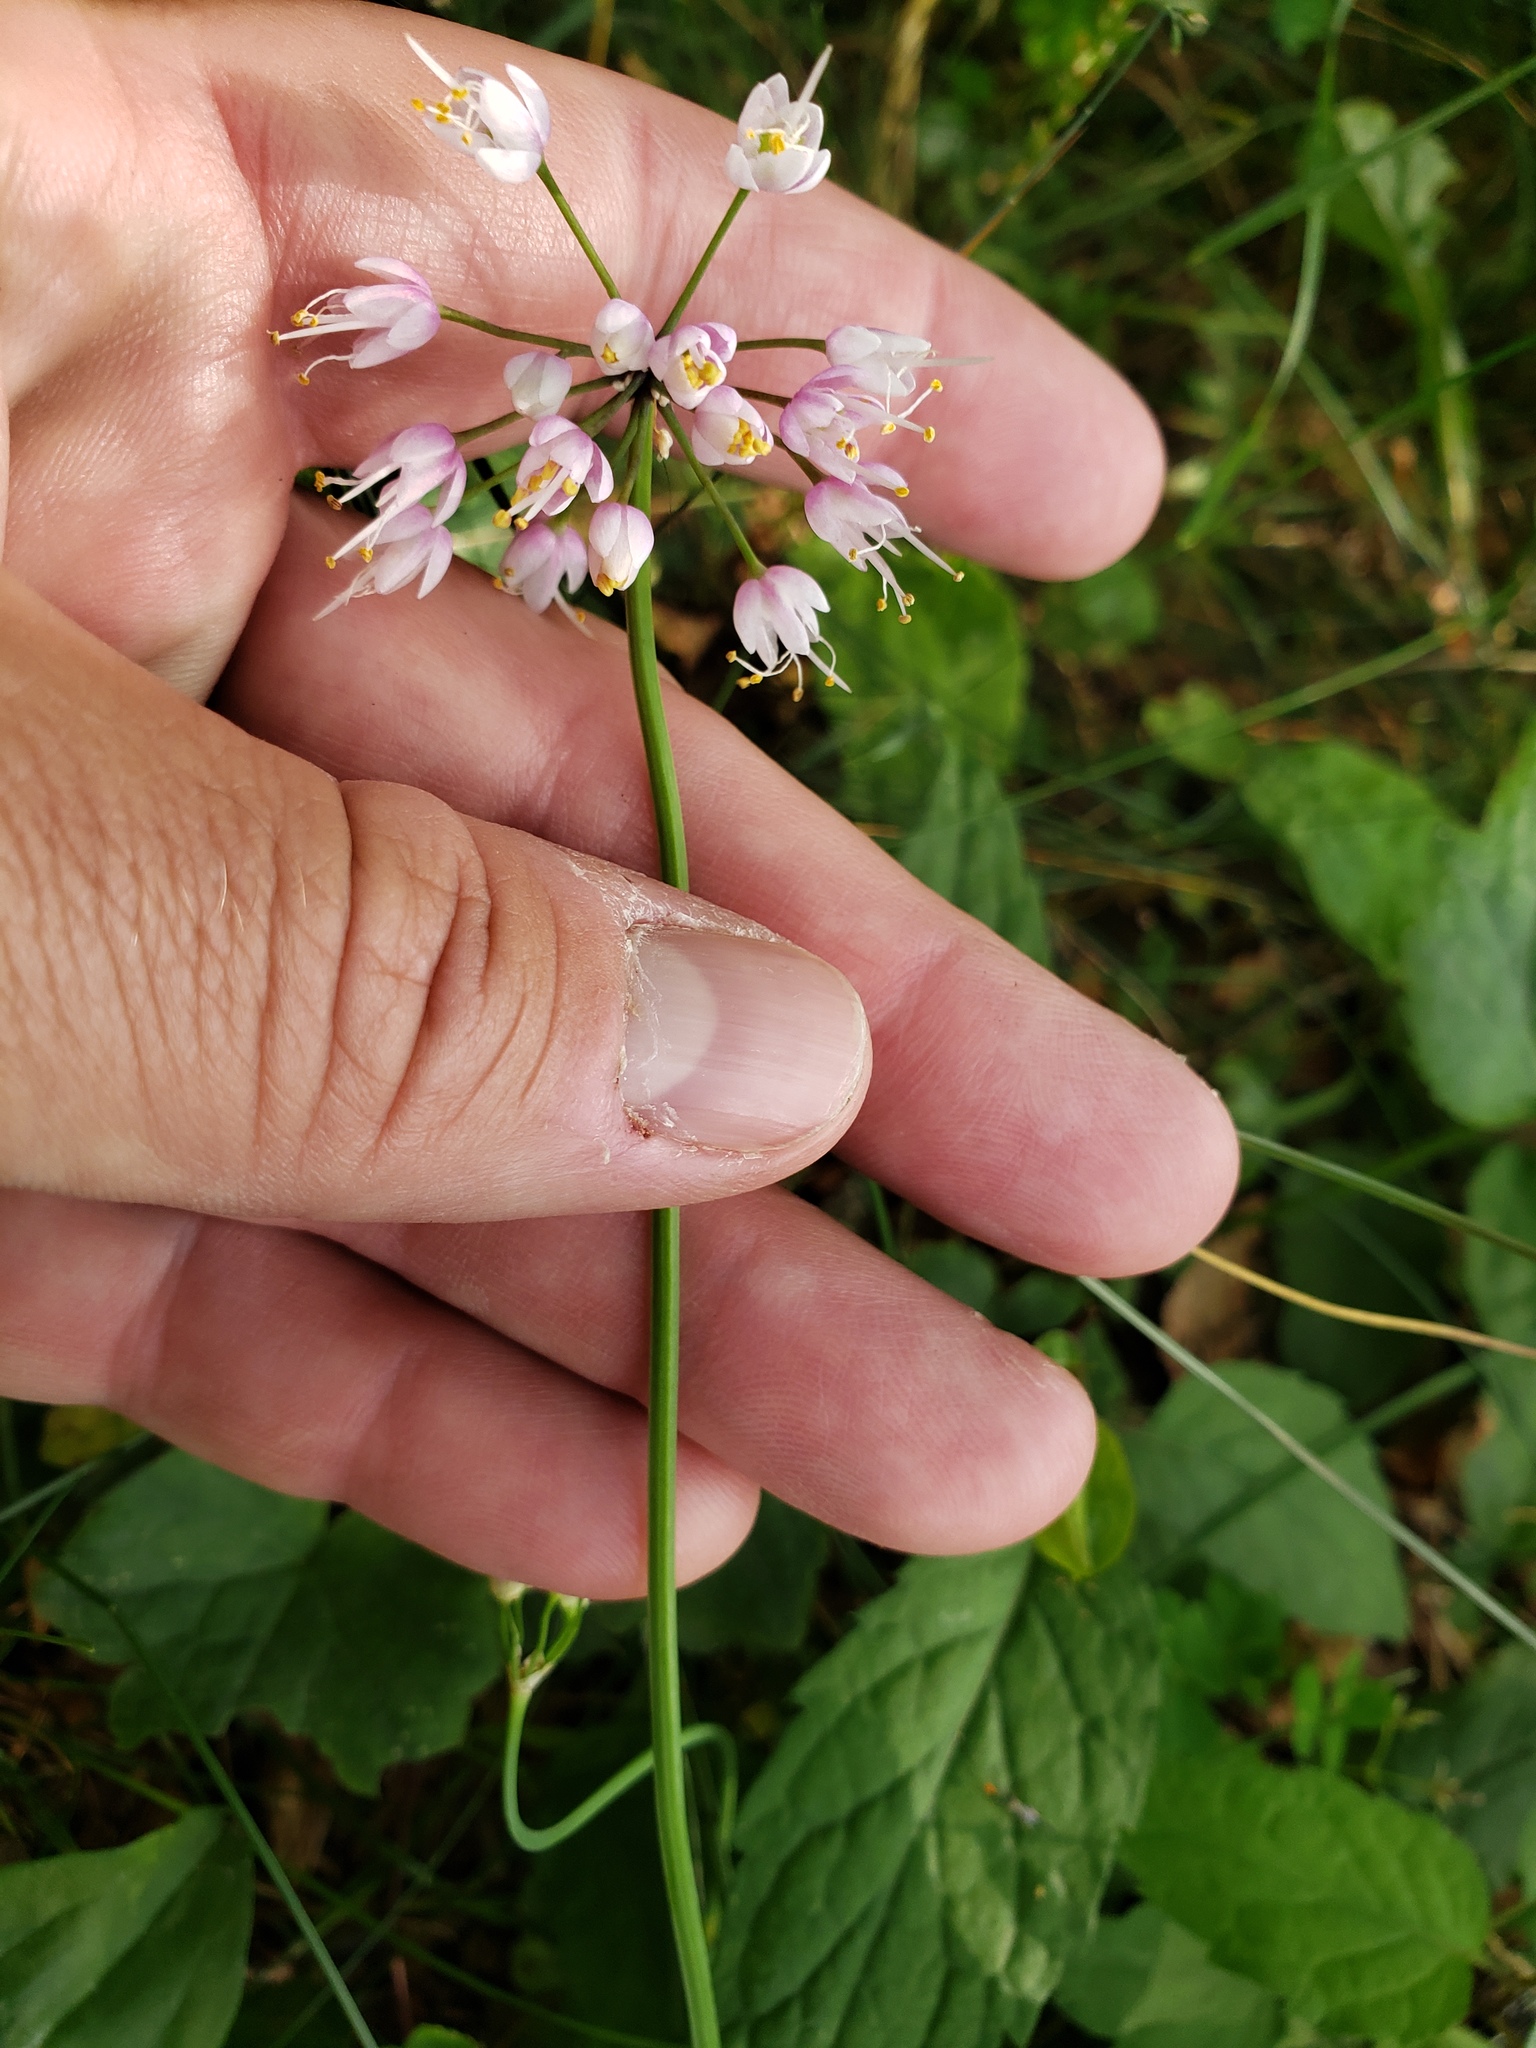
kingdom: Plantae
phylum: Tracheophyta
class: Liliopsida
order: Asparagales
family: Amaryllidaceae
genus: Allium
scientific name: Allium cernuum
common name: Nodding onion
